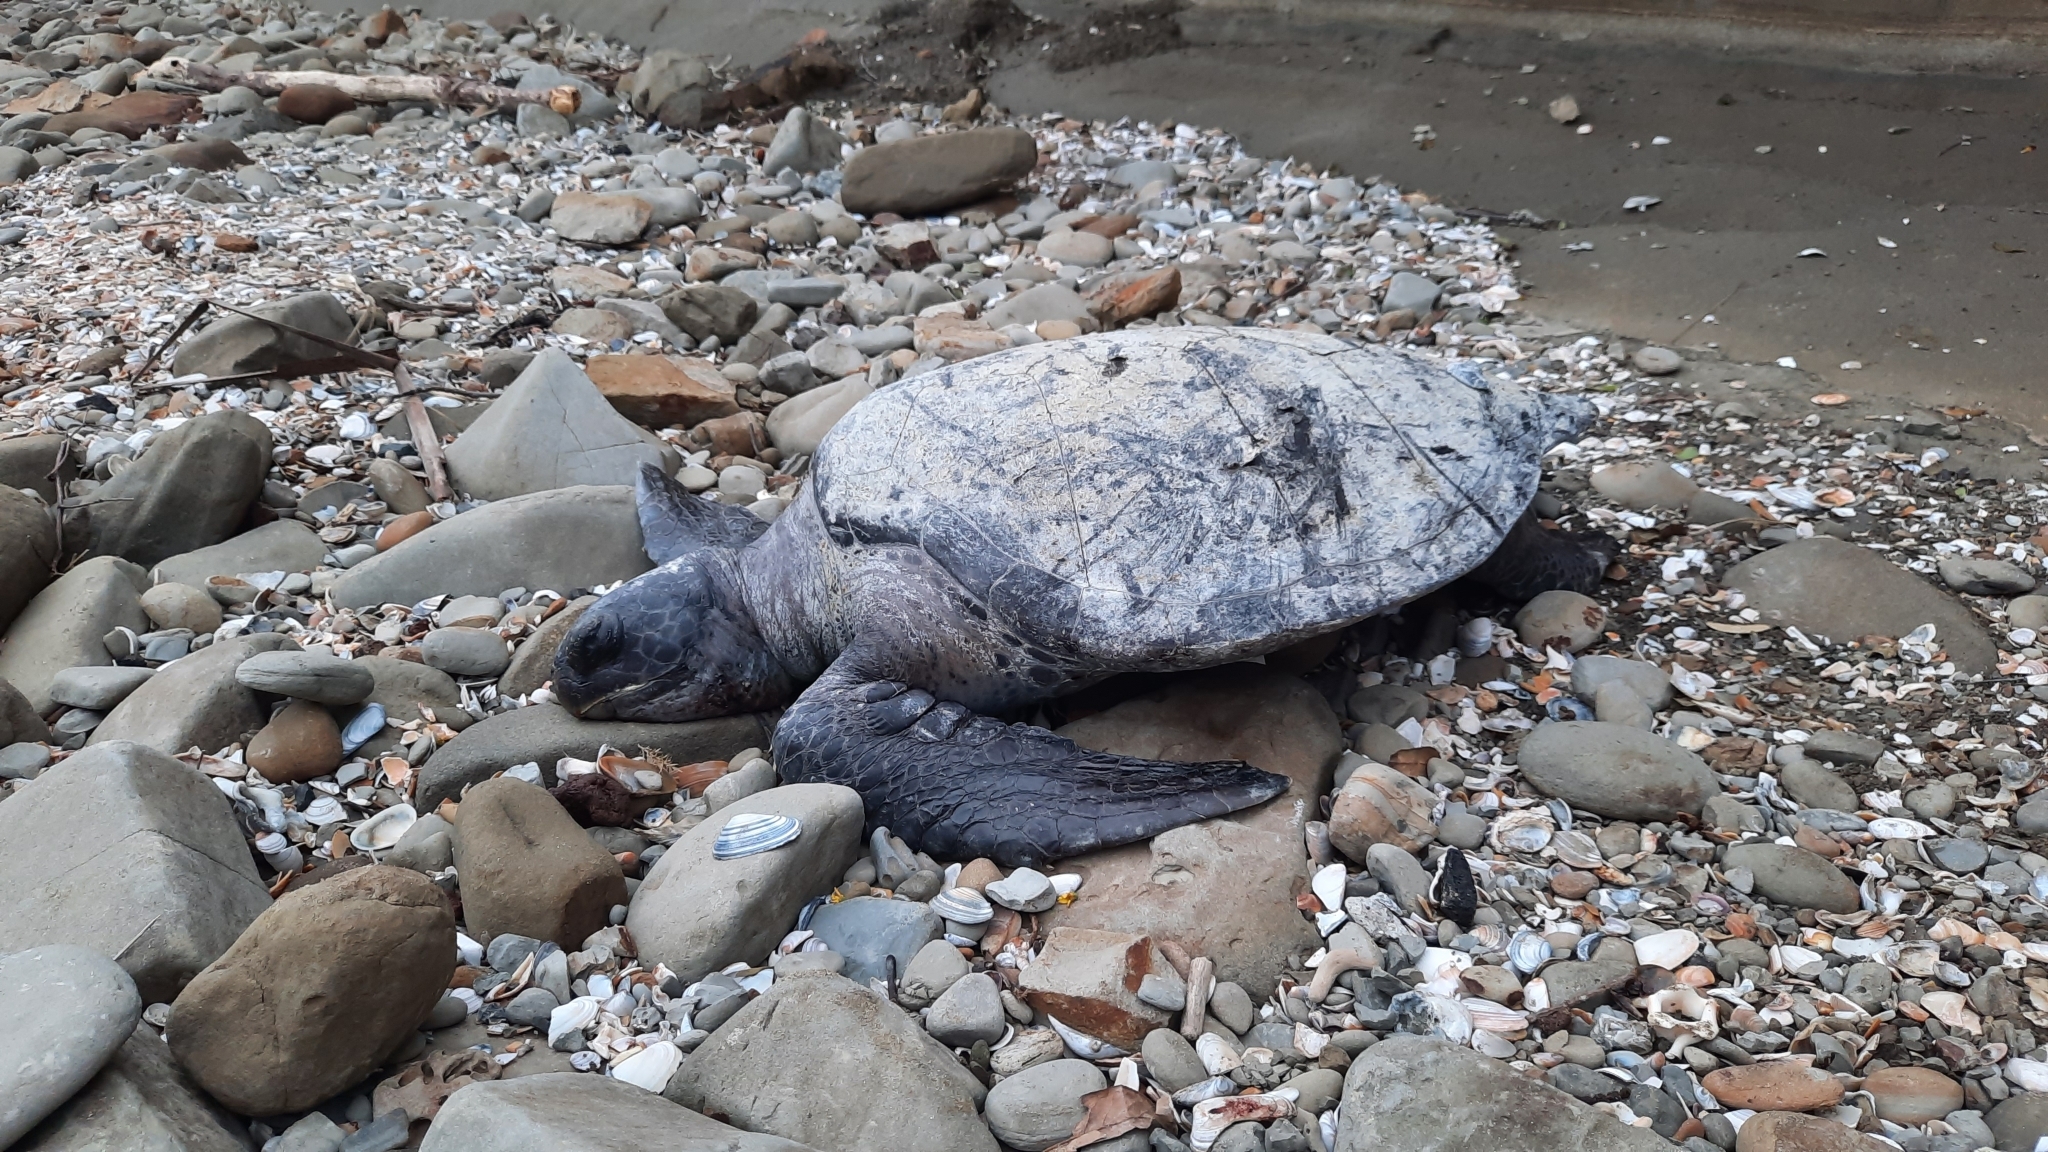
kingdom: Animalia
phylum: Chordata
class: Testudines
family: Cheloniidae
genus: Chelonia
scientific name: Chelonia mydas
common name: Green turtle
